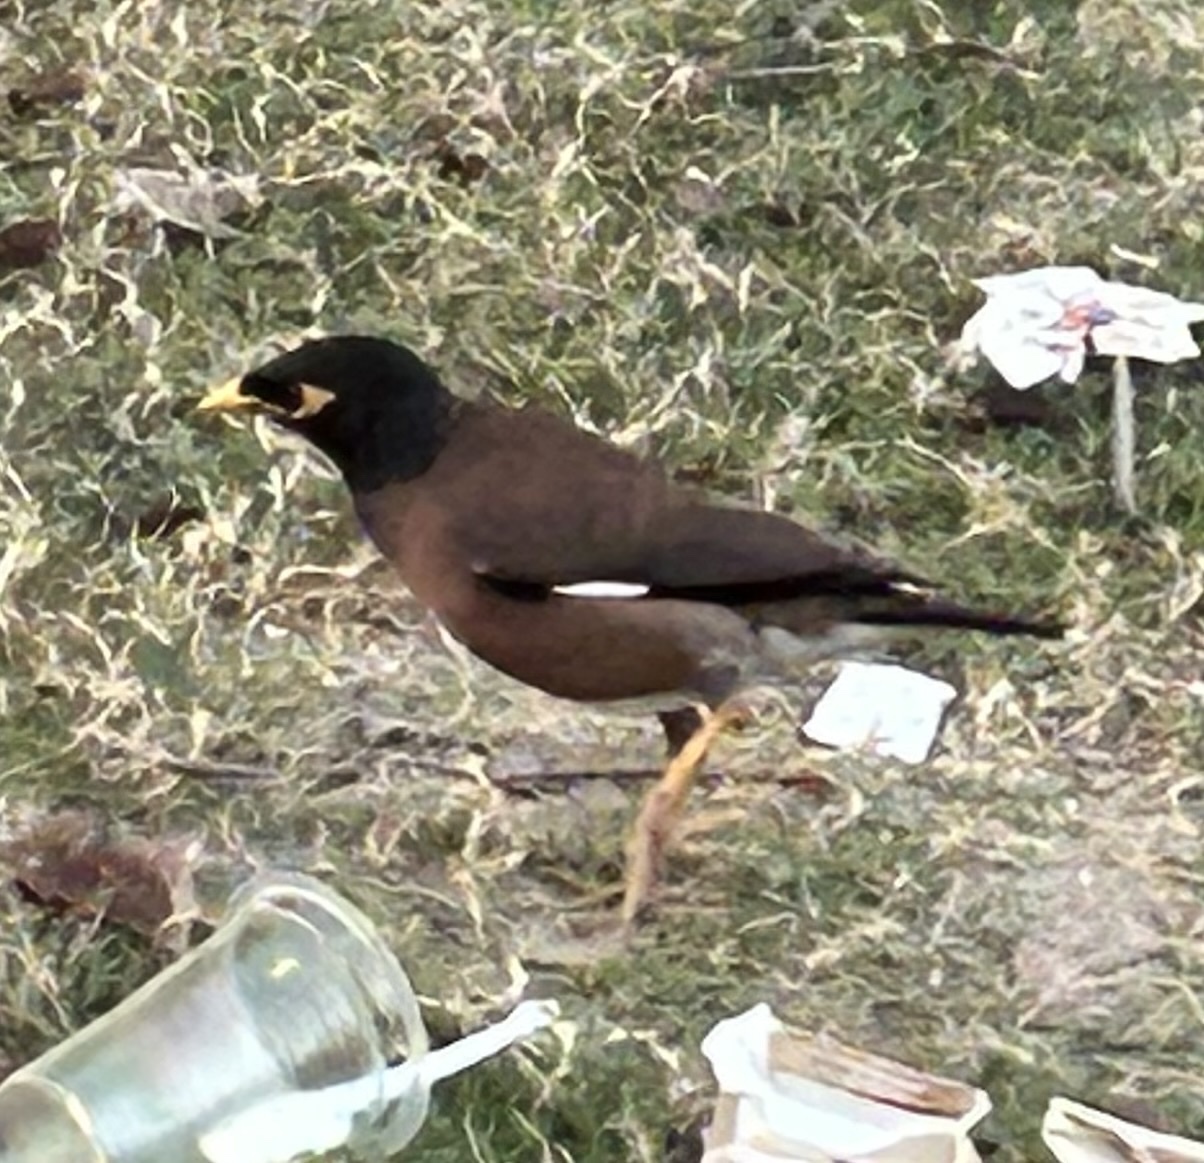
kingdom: Animalia
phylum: Chordata
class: Aves
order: Passeriformes
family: Sturnidae
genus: Acridotheres
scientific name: Acridotheres tristis
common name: Common myna
